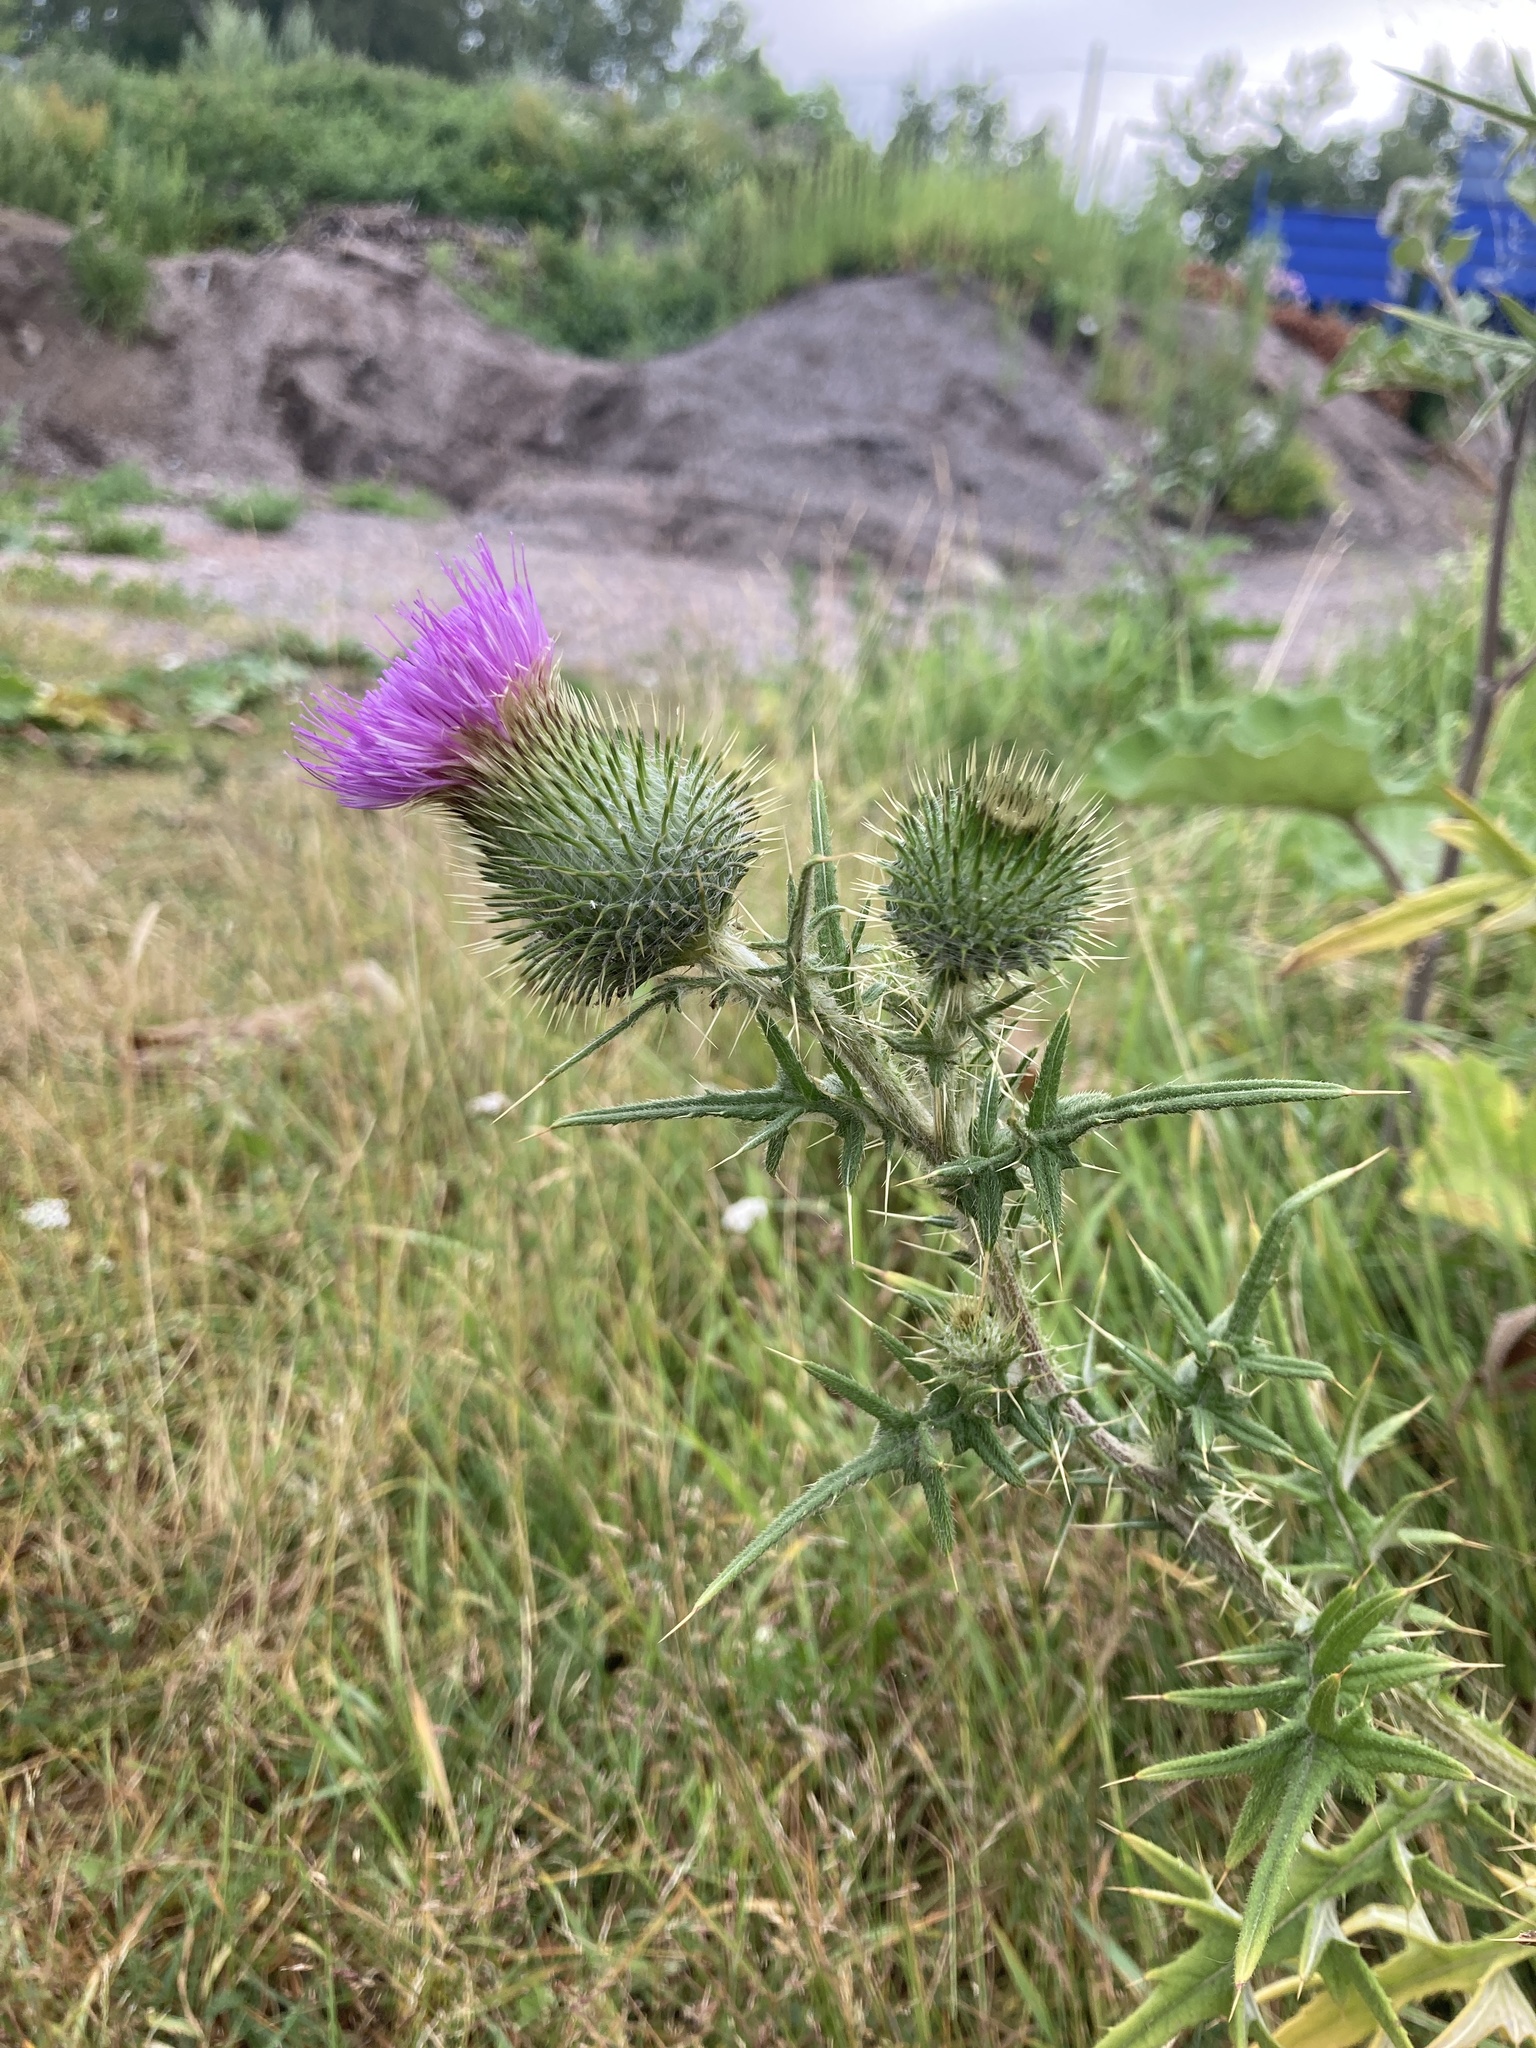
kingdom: Plantae
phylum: Tracheophyta
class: Magnoliopsida
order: Asterales
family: Asteraceae
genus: Cirsium
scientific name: Cirsium vulgare
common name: Bull thistle
